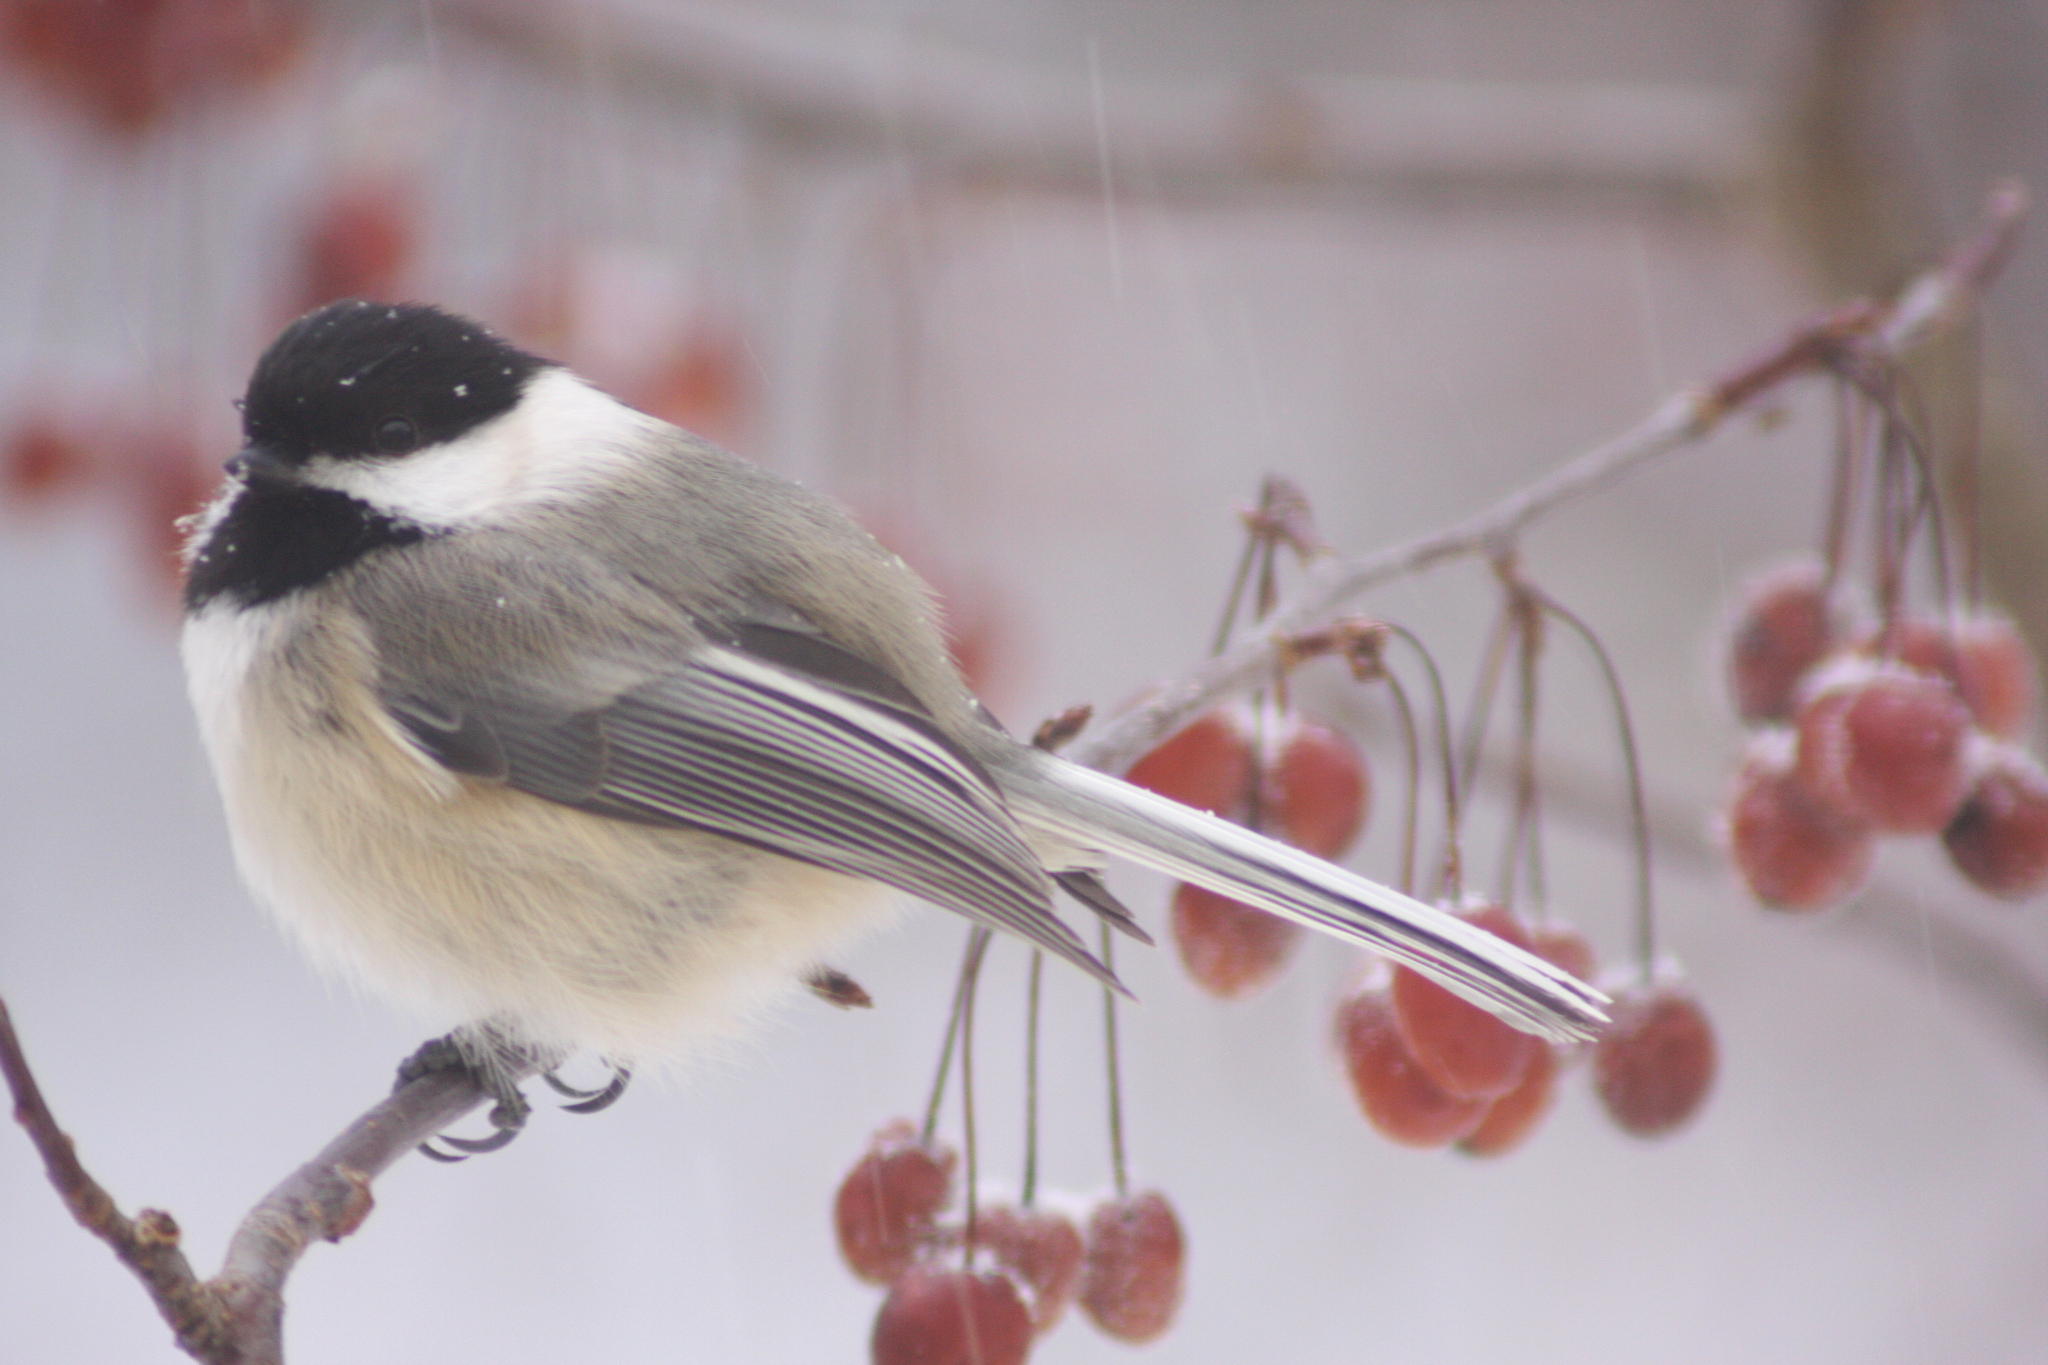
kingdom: Animalia
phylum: Chordata
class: Aves
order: Passeriformes
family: Paridae
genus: Poecile
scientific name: Poecile atricapillus
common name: Black-capped chickadee
